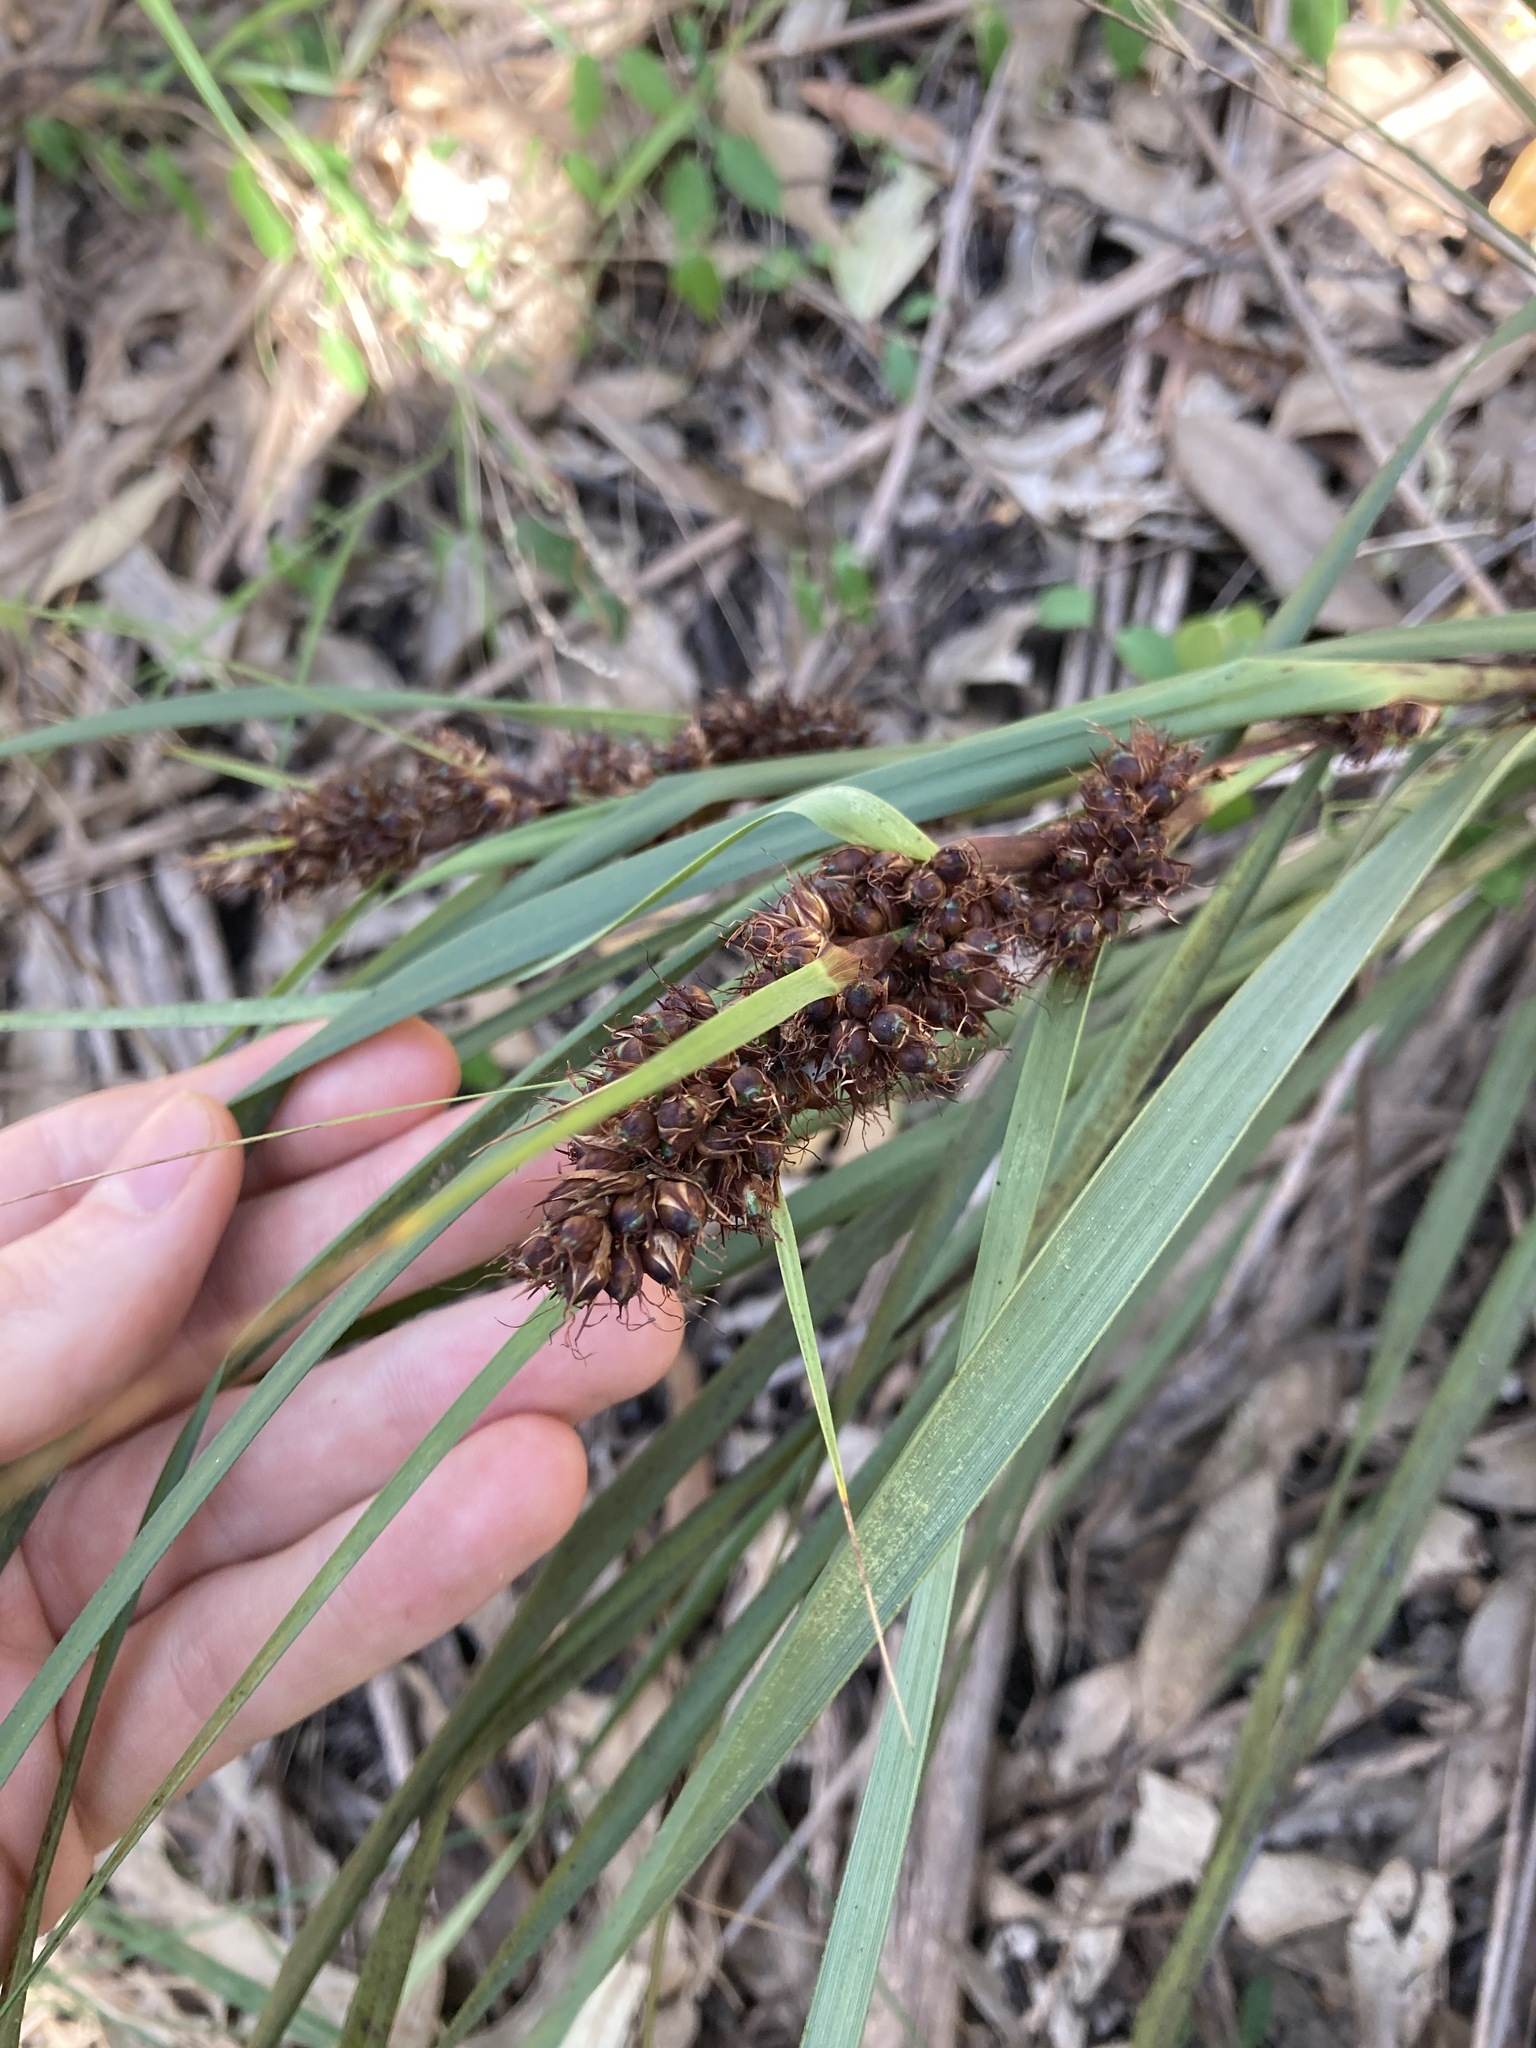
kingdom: Plantae
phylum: Tracheophyta
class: Liliopsida
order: Poales
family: Cyperaceae
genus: Gahnia
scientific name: Gahnia aspera
